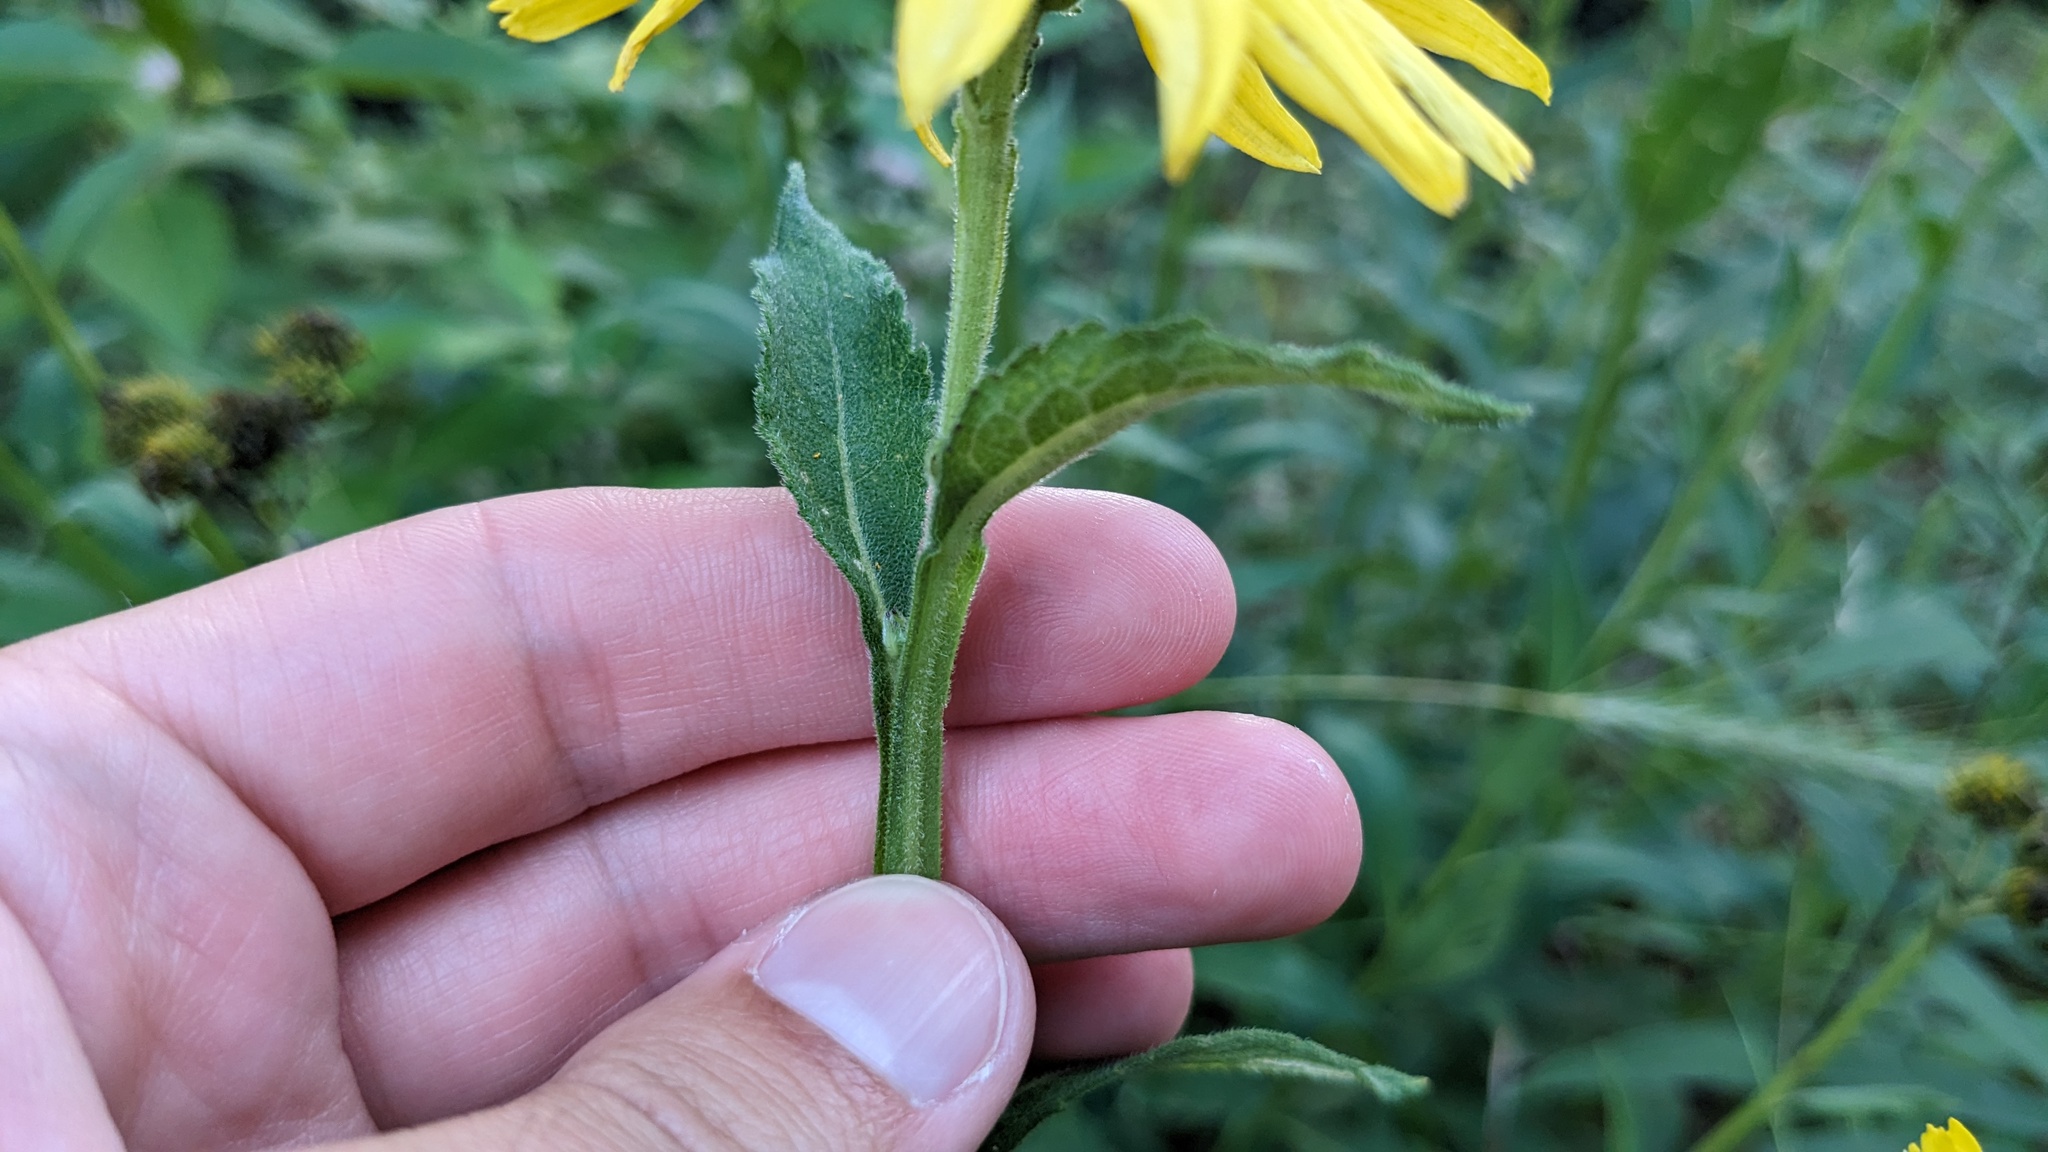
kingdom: Plantae
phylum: Tracheophyta
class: Magnoliopsida
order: Asterales
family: Asteraceae
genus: Verbesina
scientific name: Verbesina helianthoides
